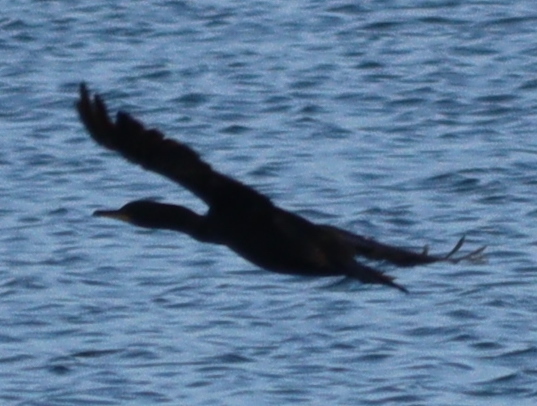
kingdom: Animalia
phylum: Chordata
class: Aves
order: Suliformes
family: Phalacrocoracidae
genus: Phalacrocorax
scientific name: Phalacrocorax aristotelis
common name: European shag
